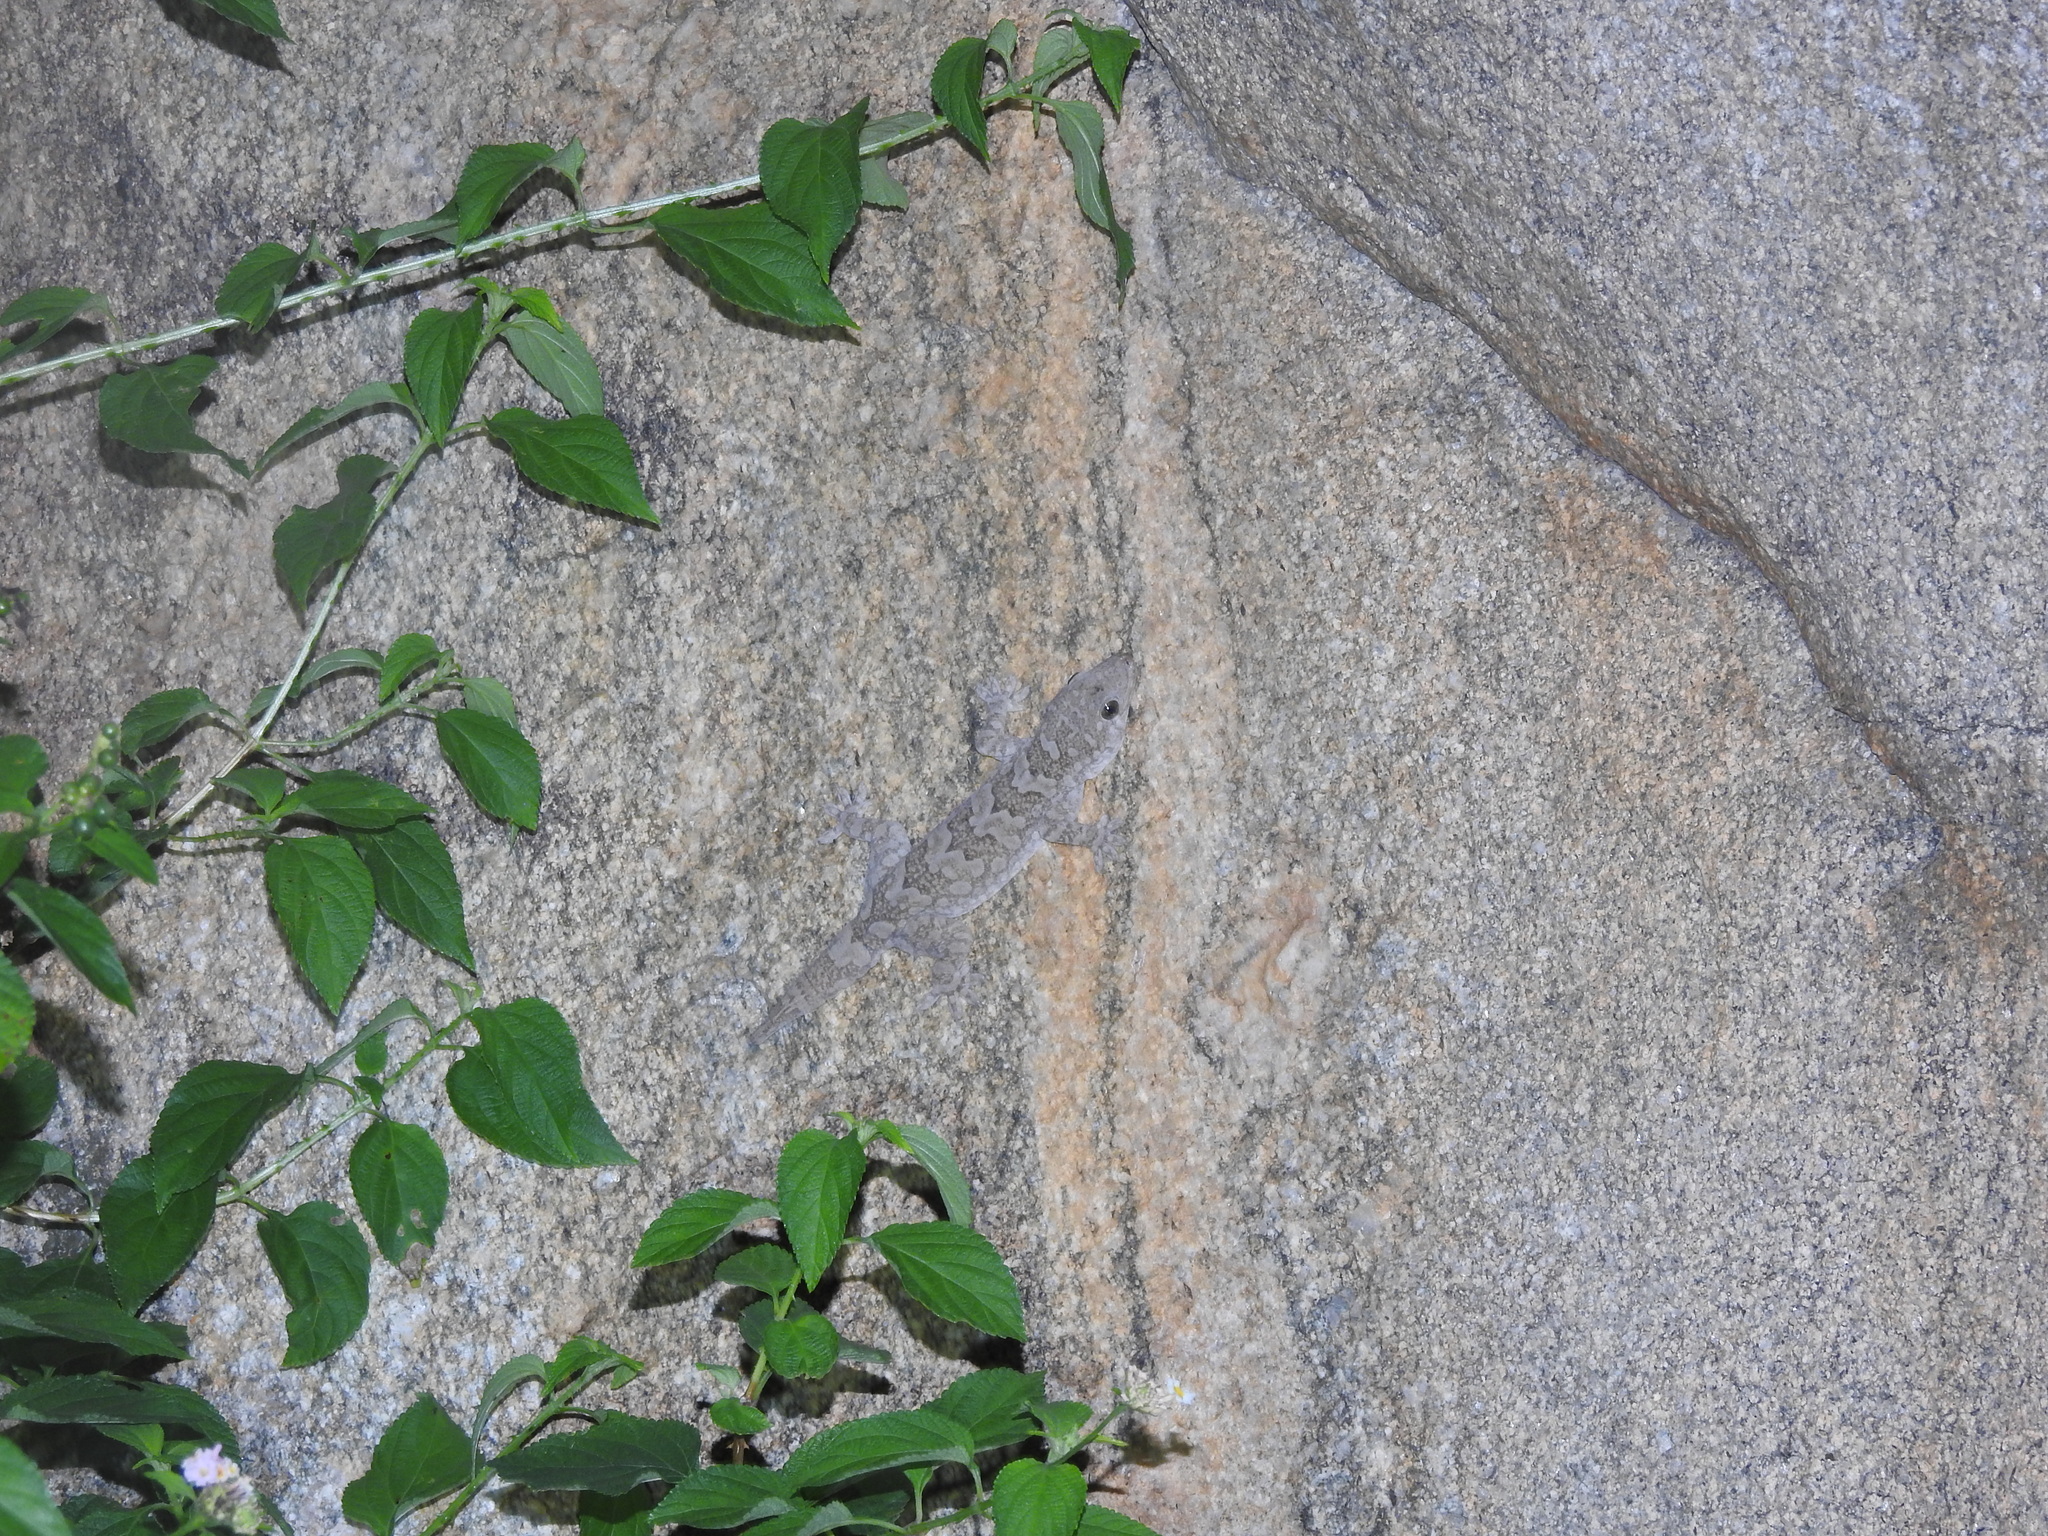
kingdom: Animalia
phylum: Chordata
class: Squamata
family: Gekkonidae
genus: Hemidactylus
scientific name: Hemidactylus giganteus
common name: Giant gecko
